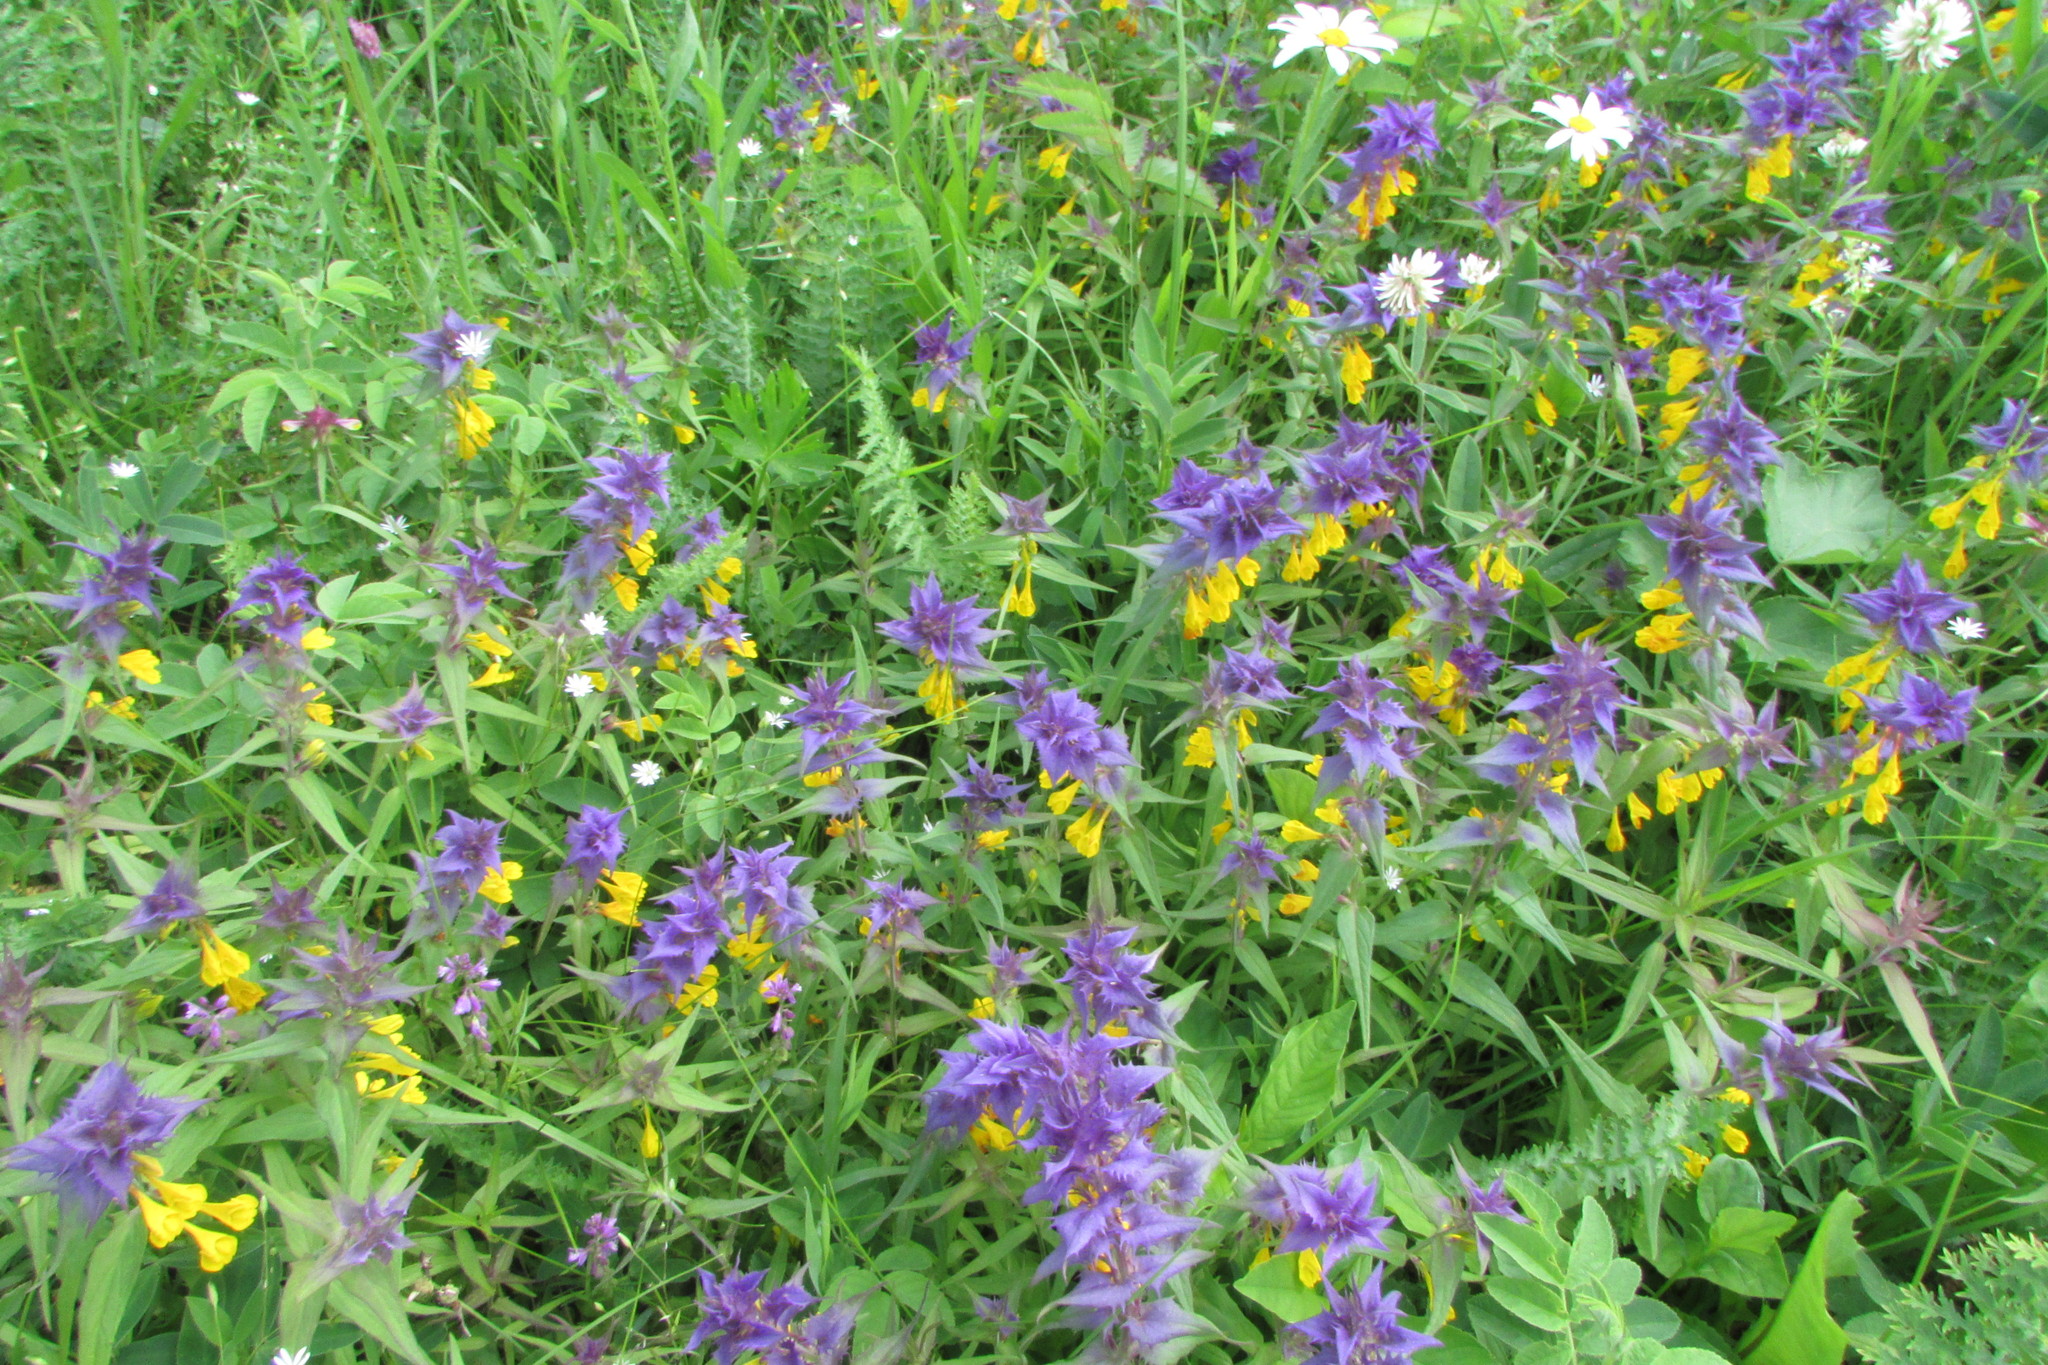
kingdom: Plantae
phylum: Tracheophyta
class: Magnoliopsida
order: Lamiales
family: Orobanchaceae
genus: Melampyrum
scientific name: Melampyrum nemorosum
